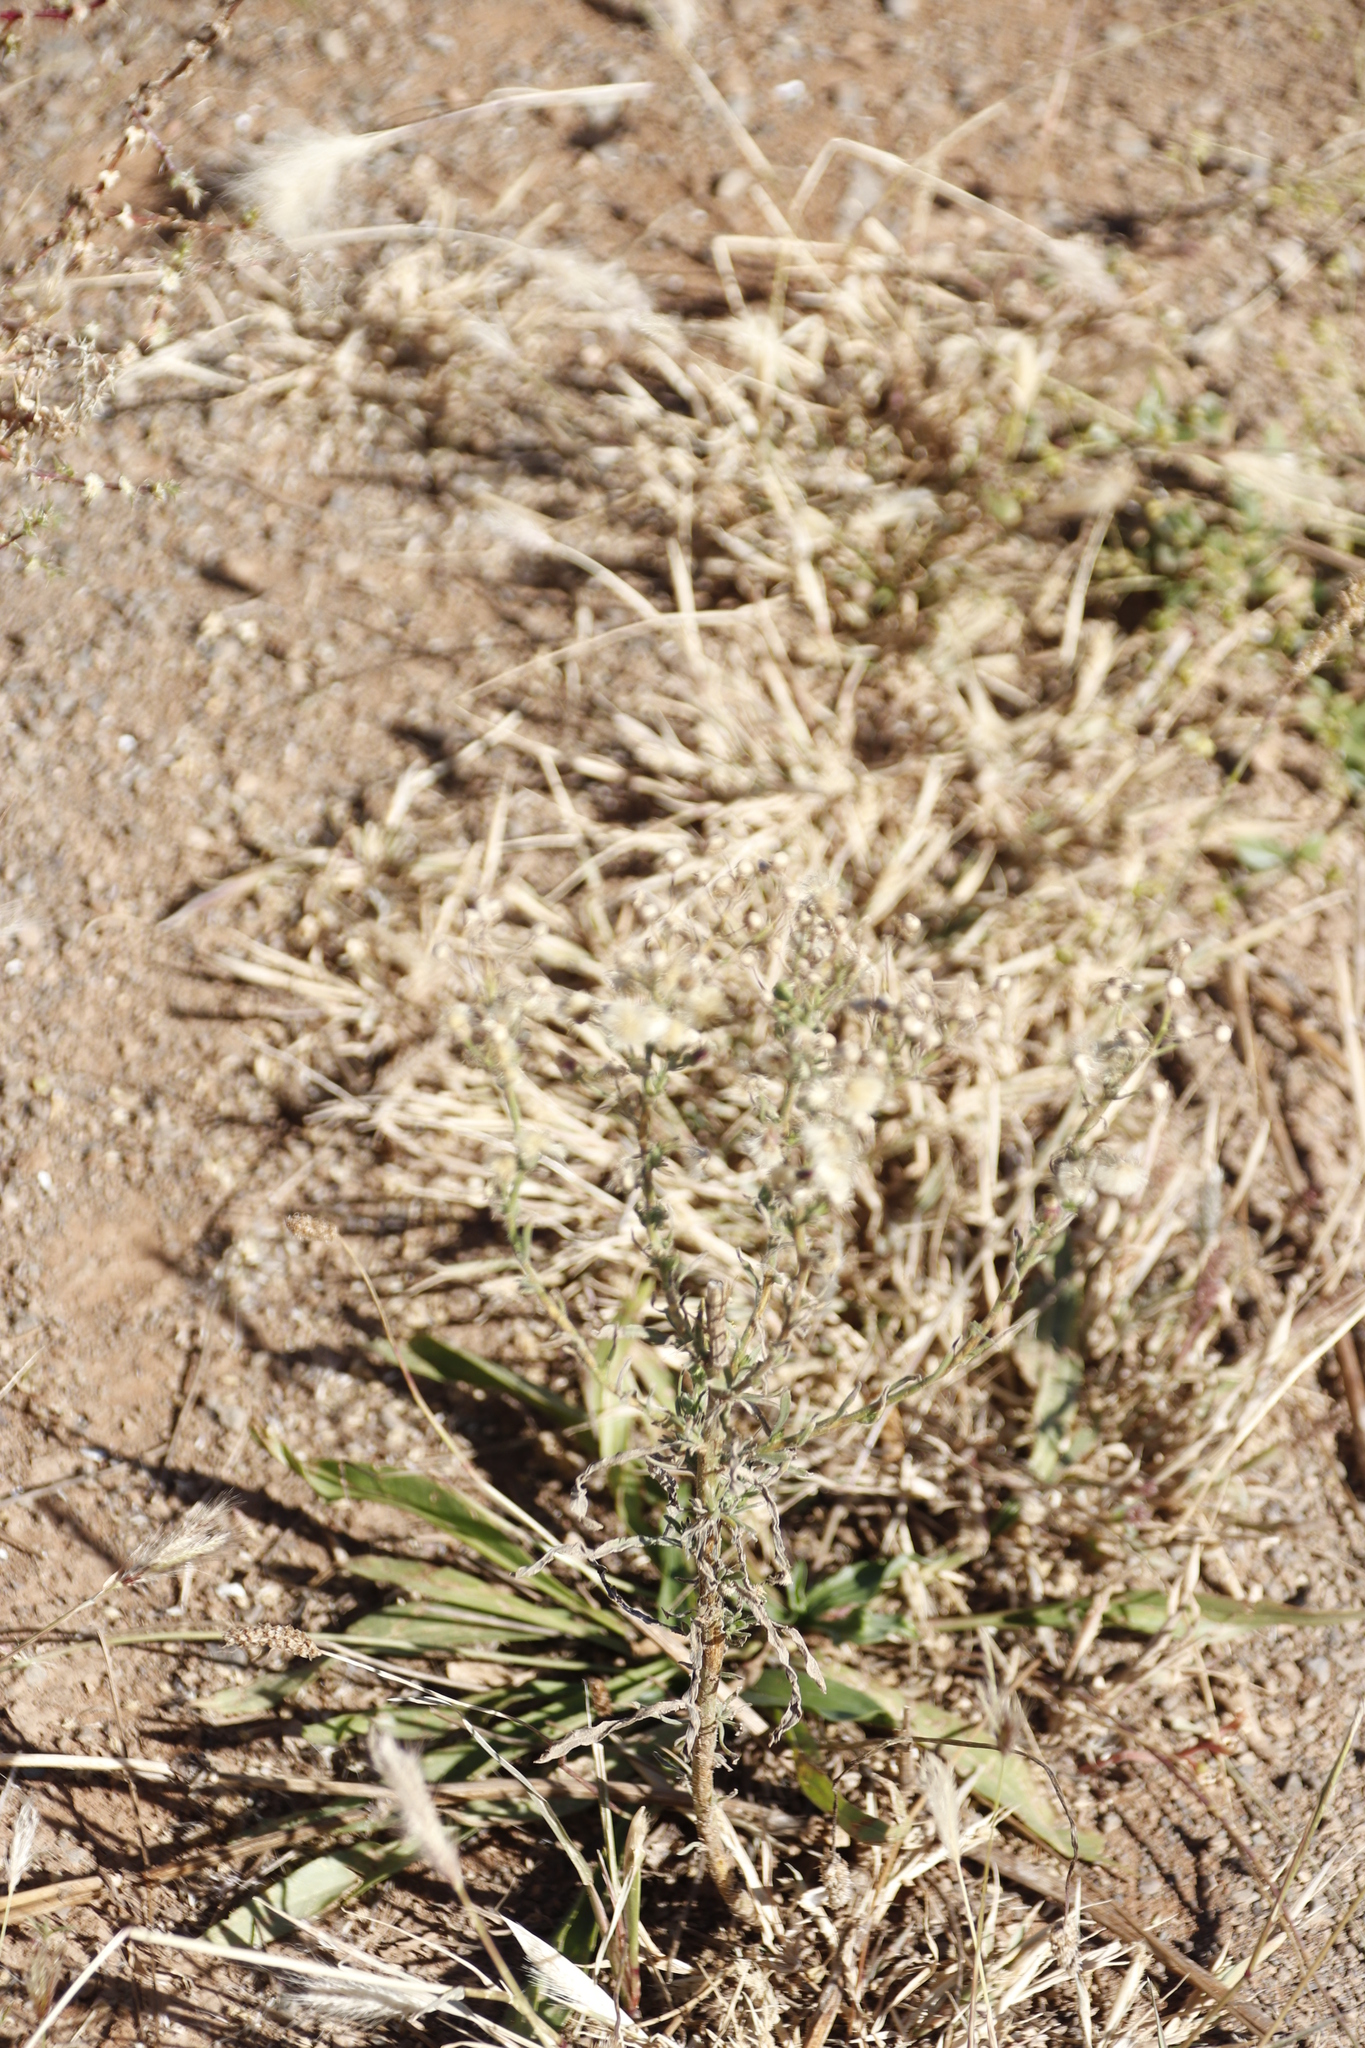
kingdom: Plantae
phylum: Tracheophyta
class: Liliopsida
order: Poales
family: Poaceae
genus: Chloris
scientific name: Chloris virgata
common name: Feathery rhodes-grass
